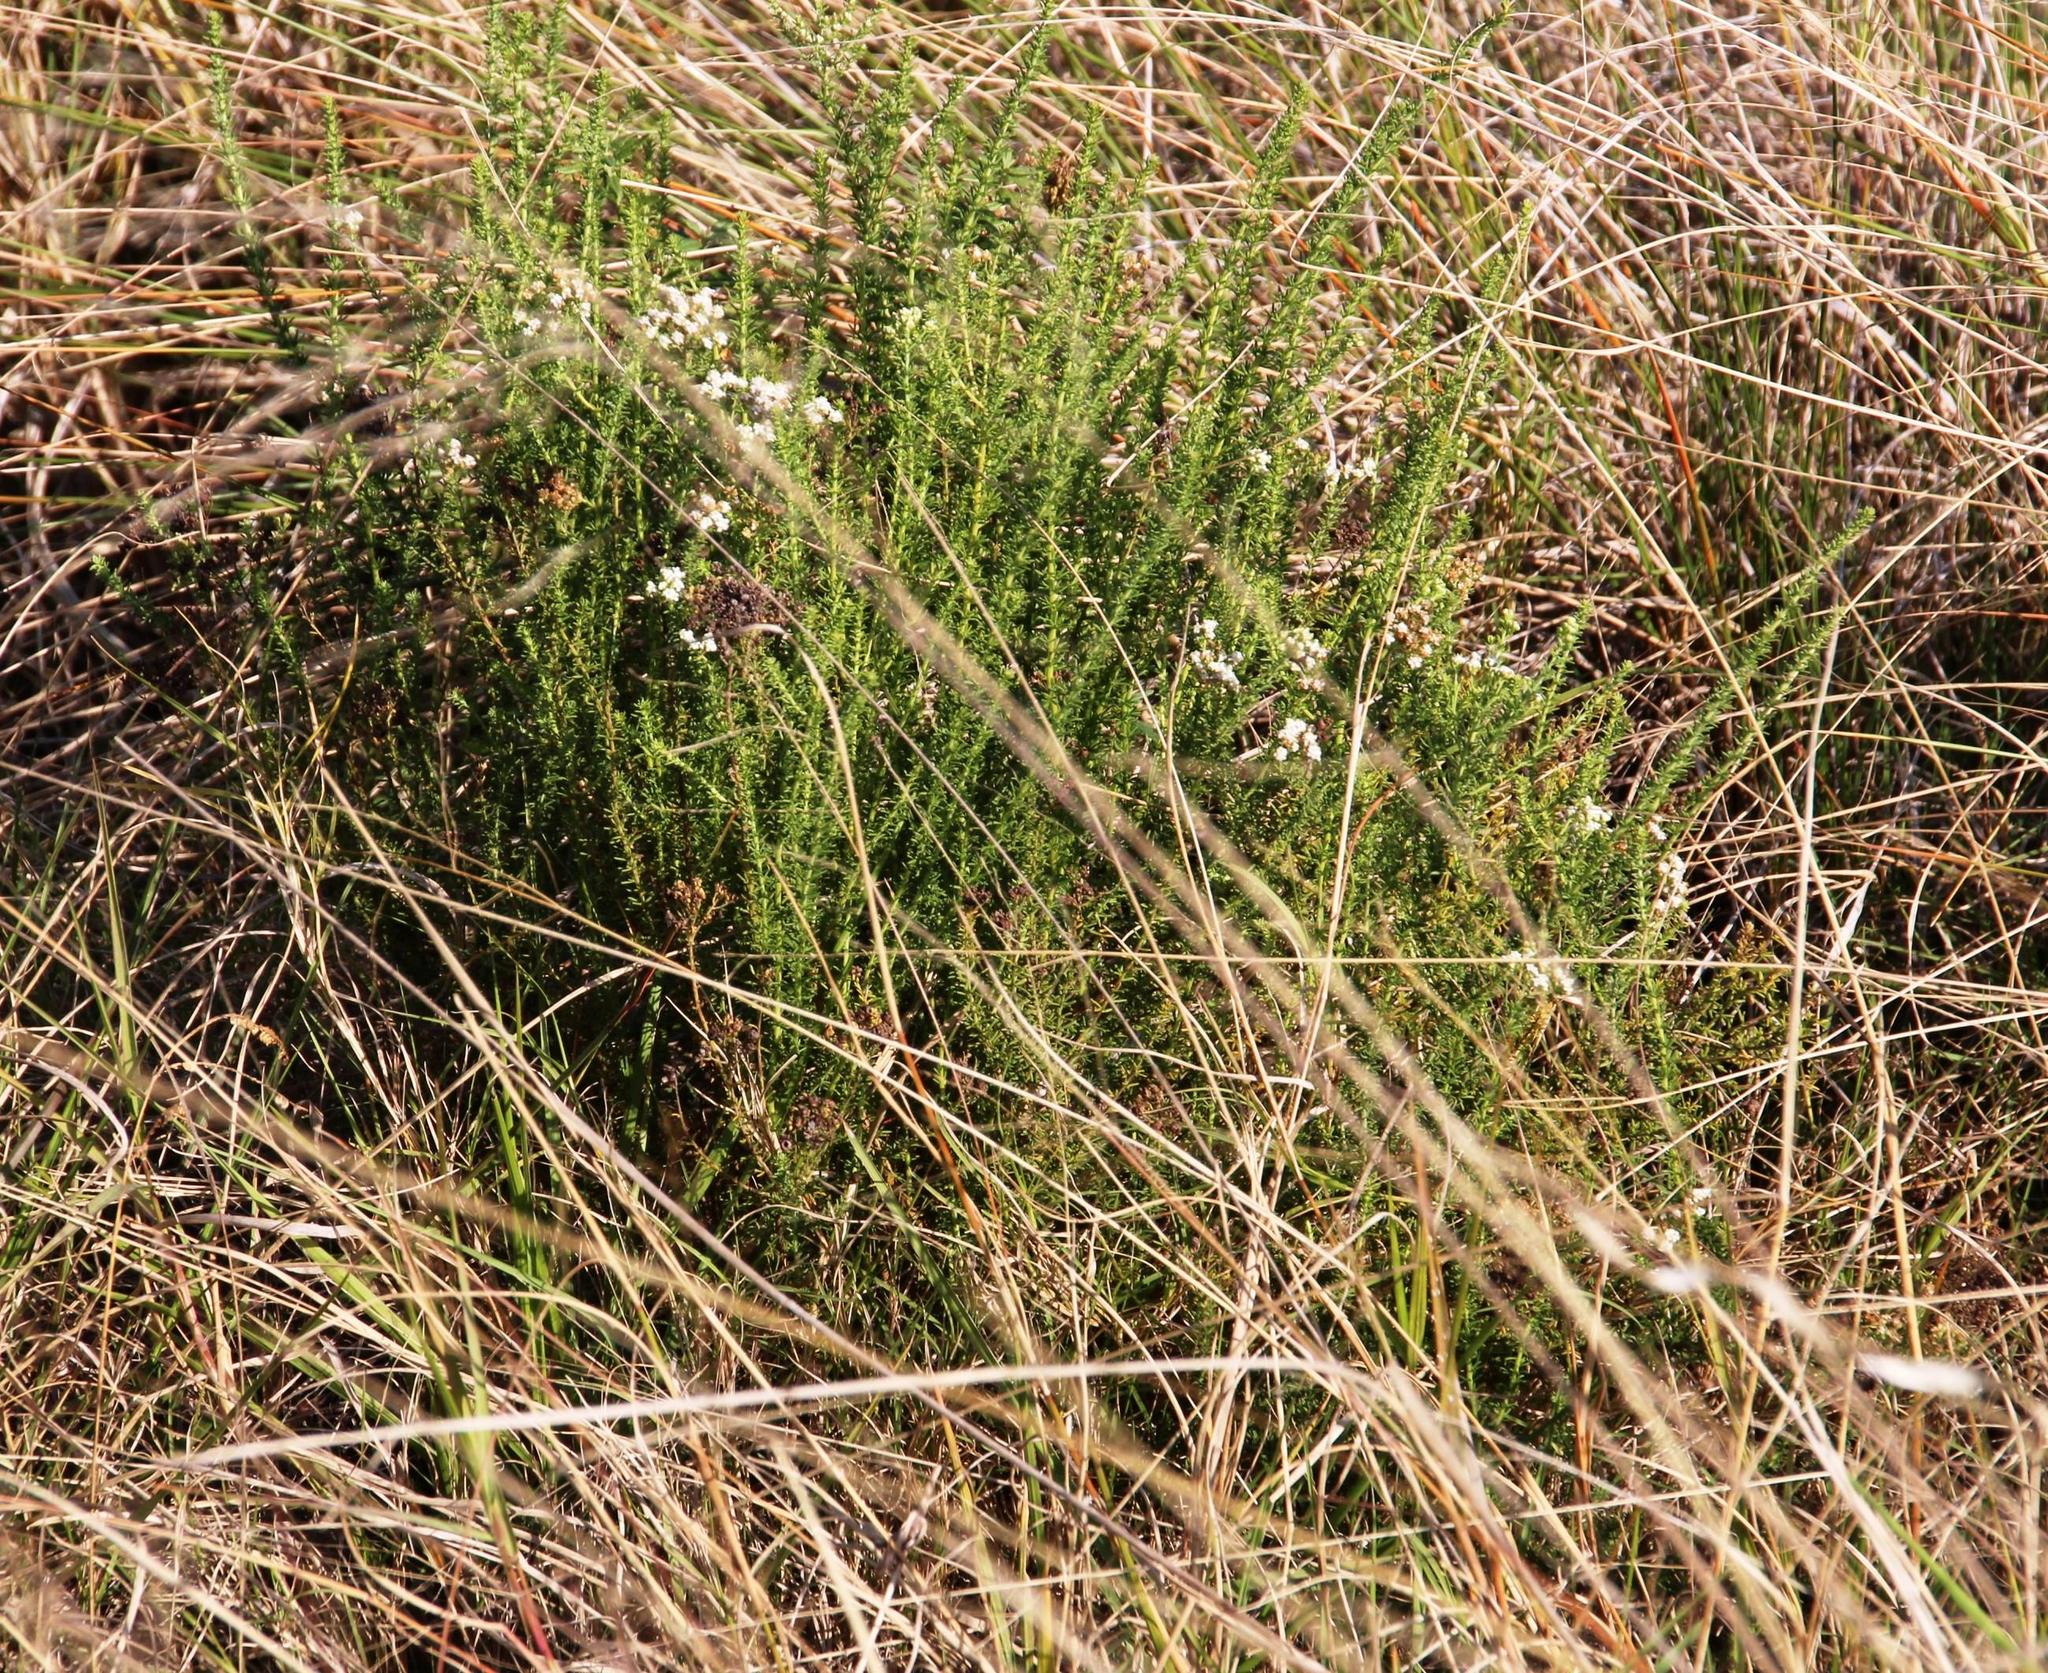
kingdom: Plantae
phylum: Tracheophyta
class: Magnoliopsida
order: Lamiales
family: Scrophulariaceae
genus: Selago
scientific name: Selago dolosa
